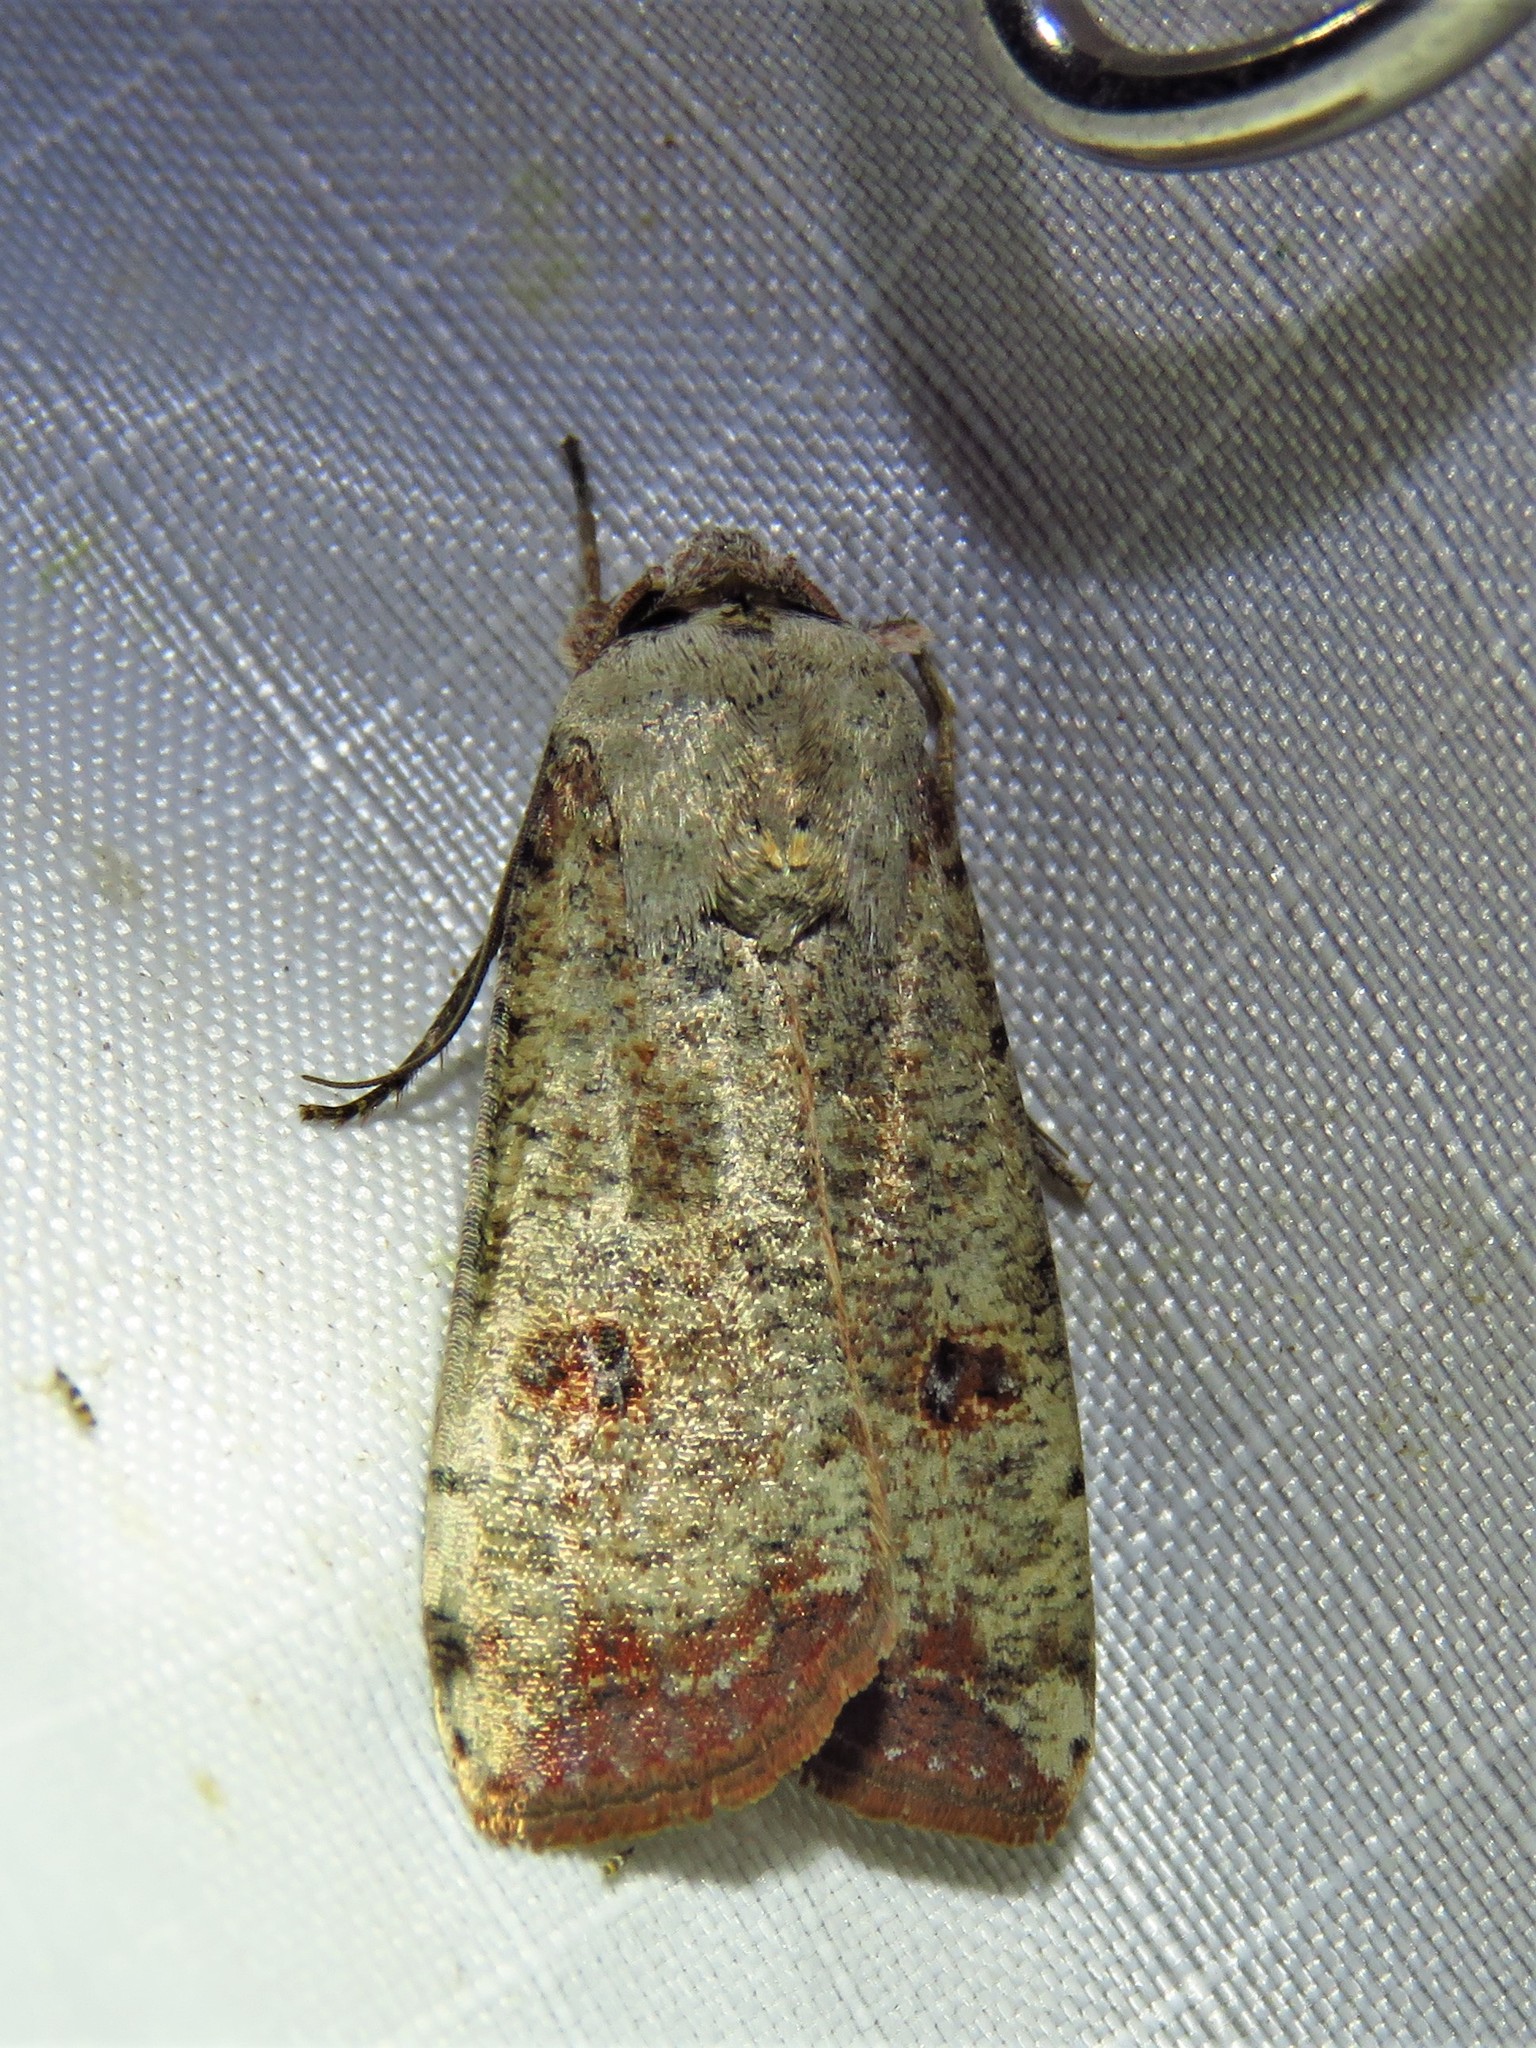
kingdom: Animalia
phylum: Arthropoda
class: Insecta
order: Lepidoptera
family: Noctuidae
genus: Anicla
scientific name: Anicla infecta
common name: Green cutworm
